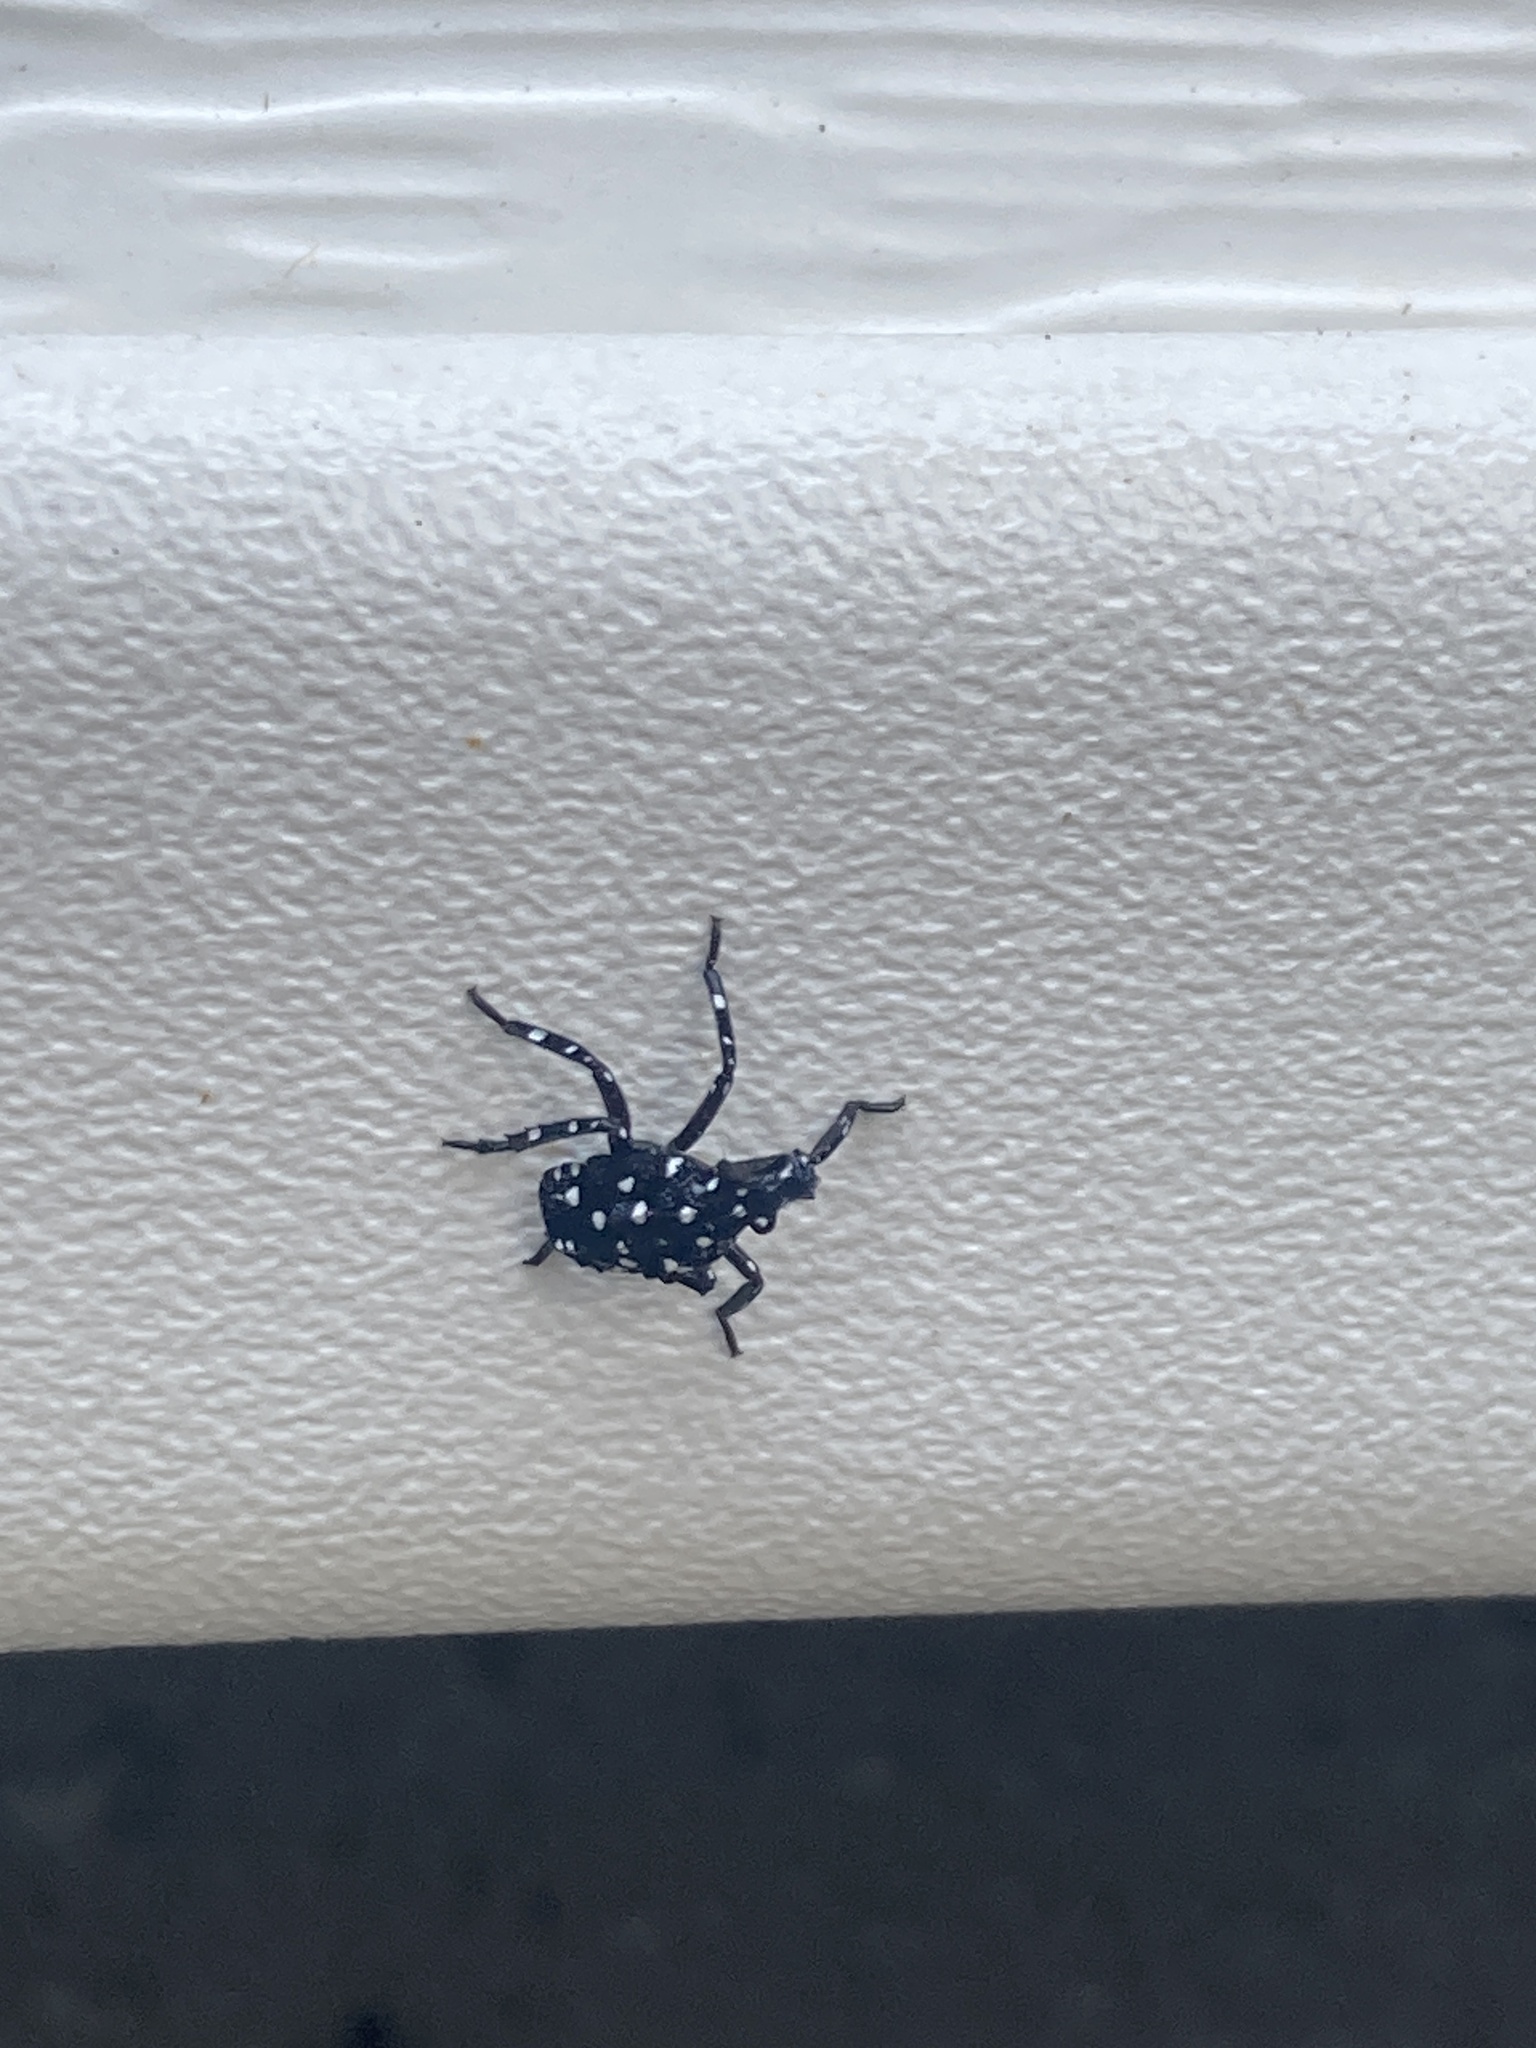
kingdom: Animalia
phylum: Arthropoda
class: Insecta
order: Hemiptera
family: Fulgoridae
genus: Lycorma
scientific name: Lycorma delicatula
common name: Spotted lanternfly
